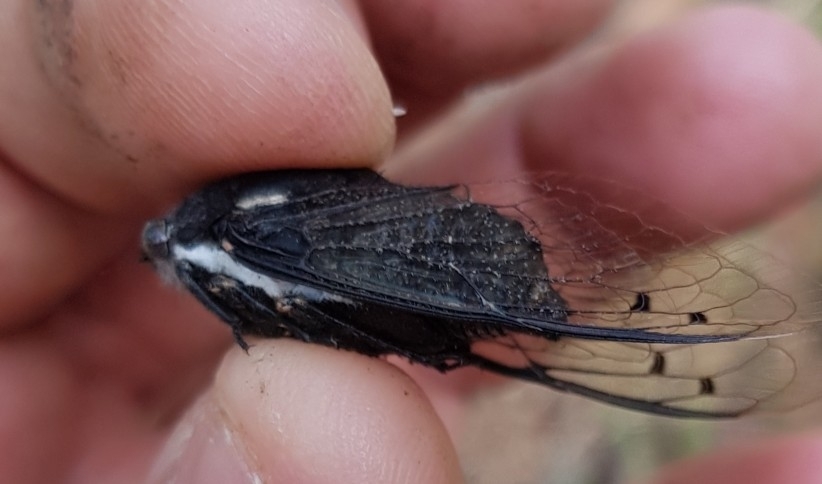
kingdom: Animalia
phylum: Arthropoda
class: Insecta
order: Hemiptera
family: Cicadidae
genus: Cacama
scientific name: Cacama maura
